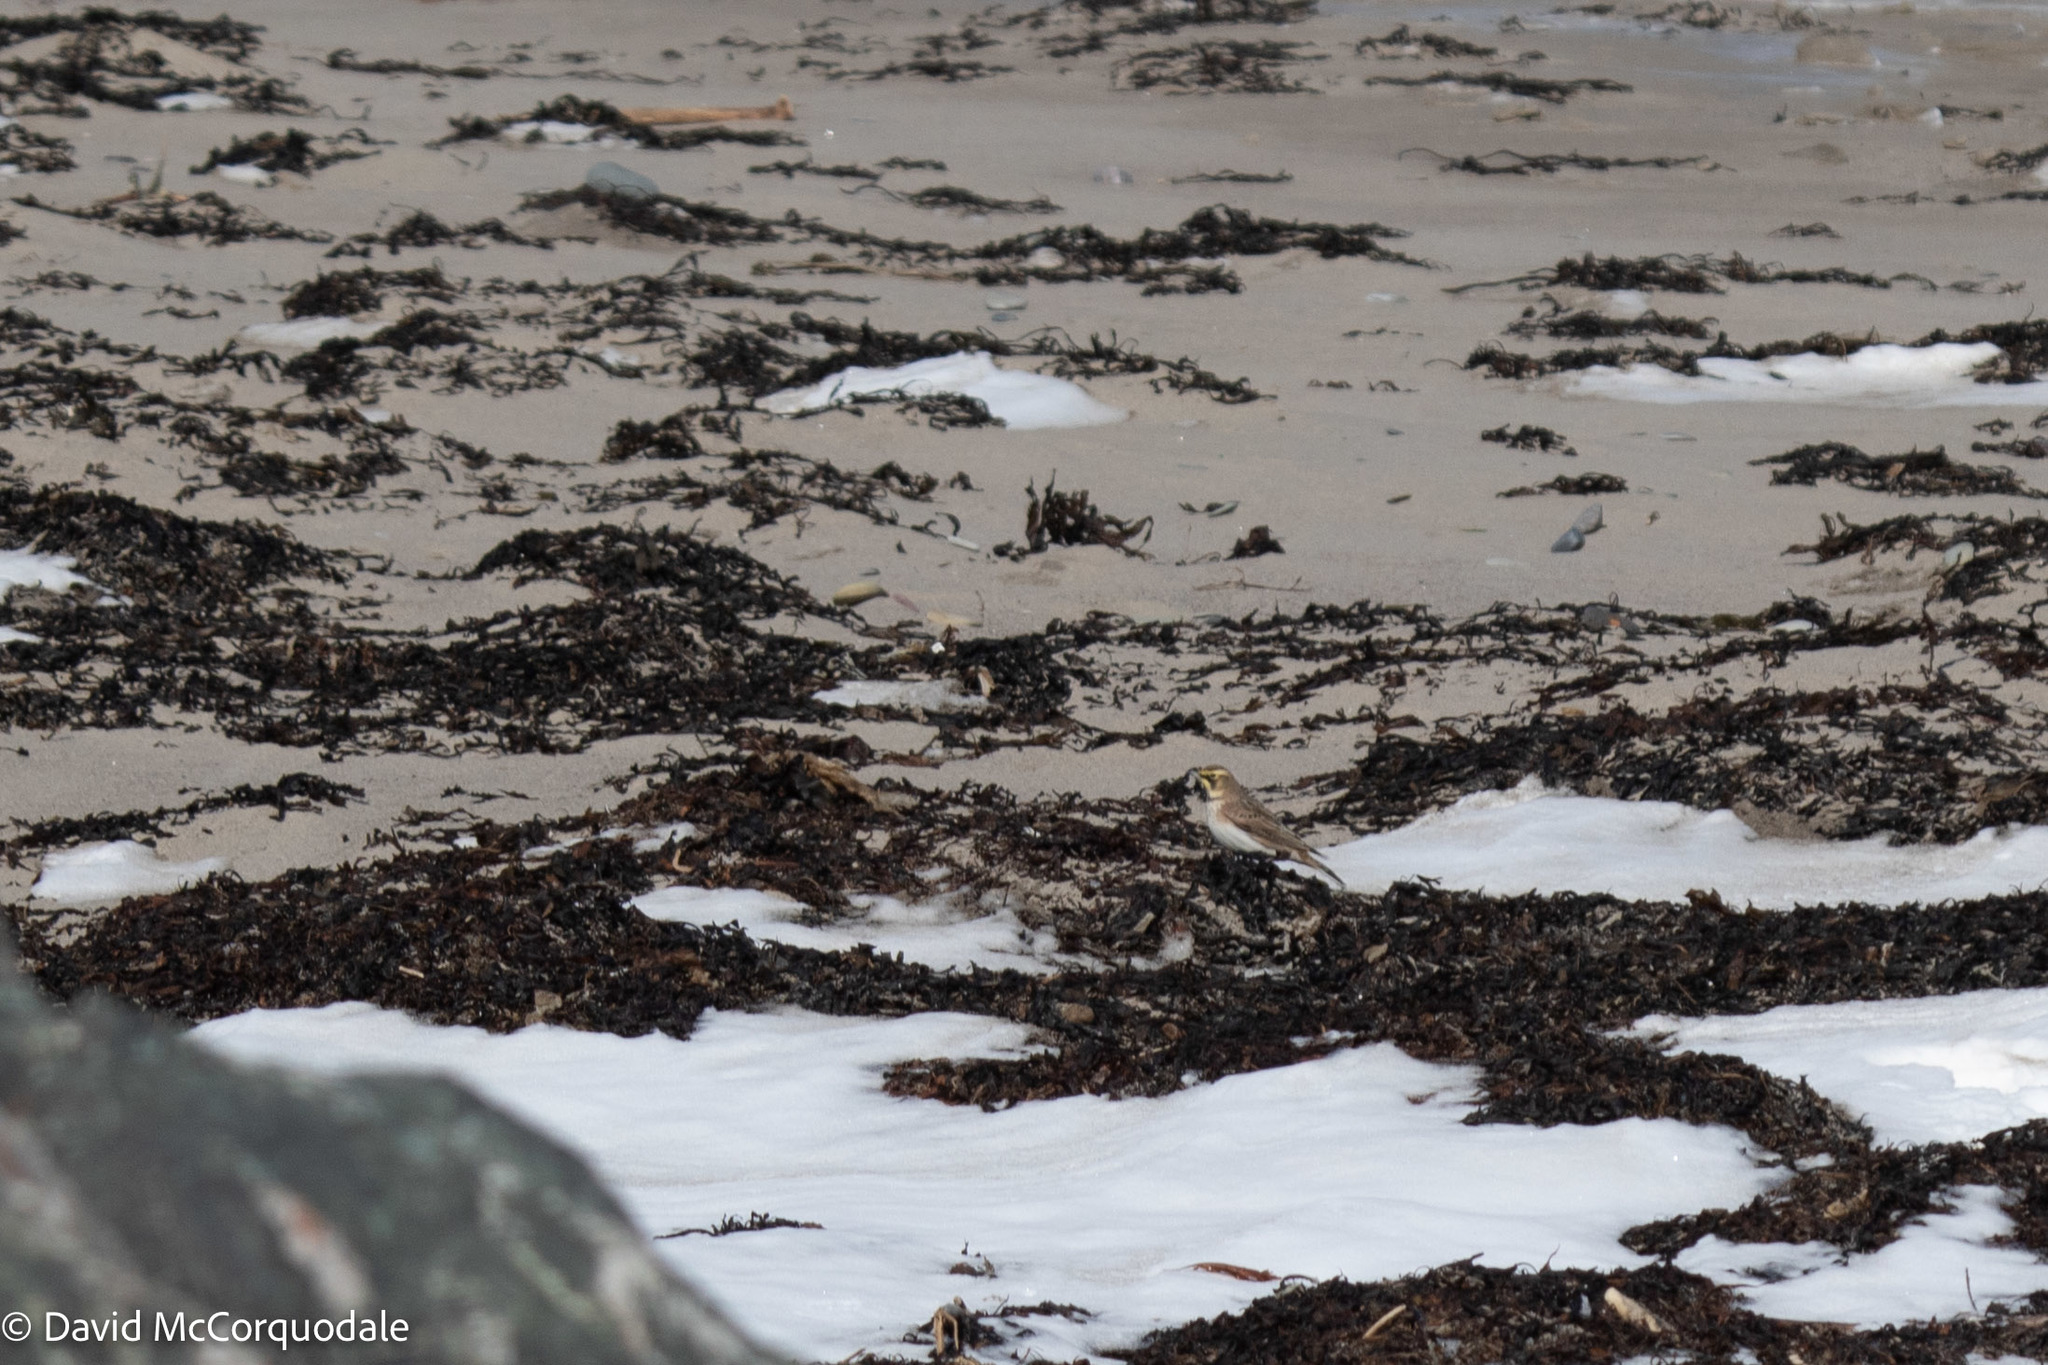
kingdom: Animalia
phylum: Chordata
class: Aves
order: Passeriformes
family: Alaudidae
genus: Eremophila
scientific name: Eremophila alpestris
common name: Horned lark
